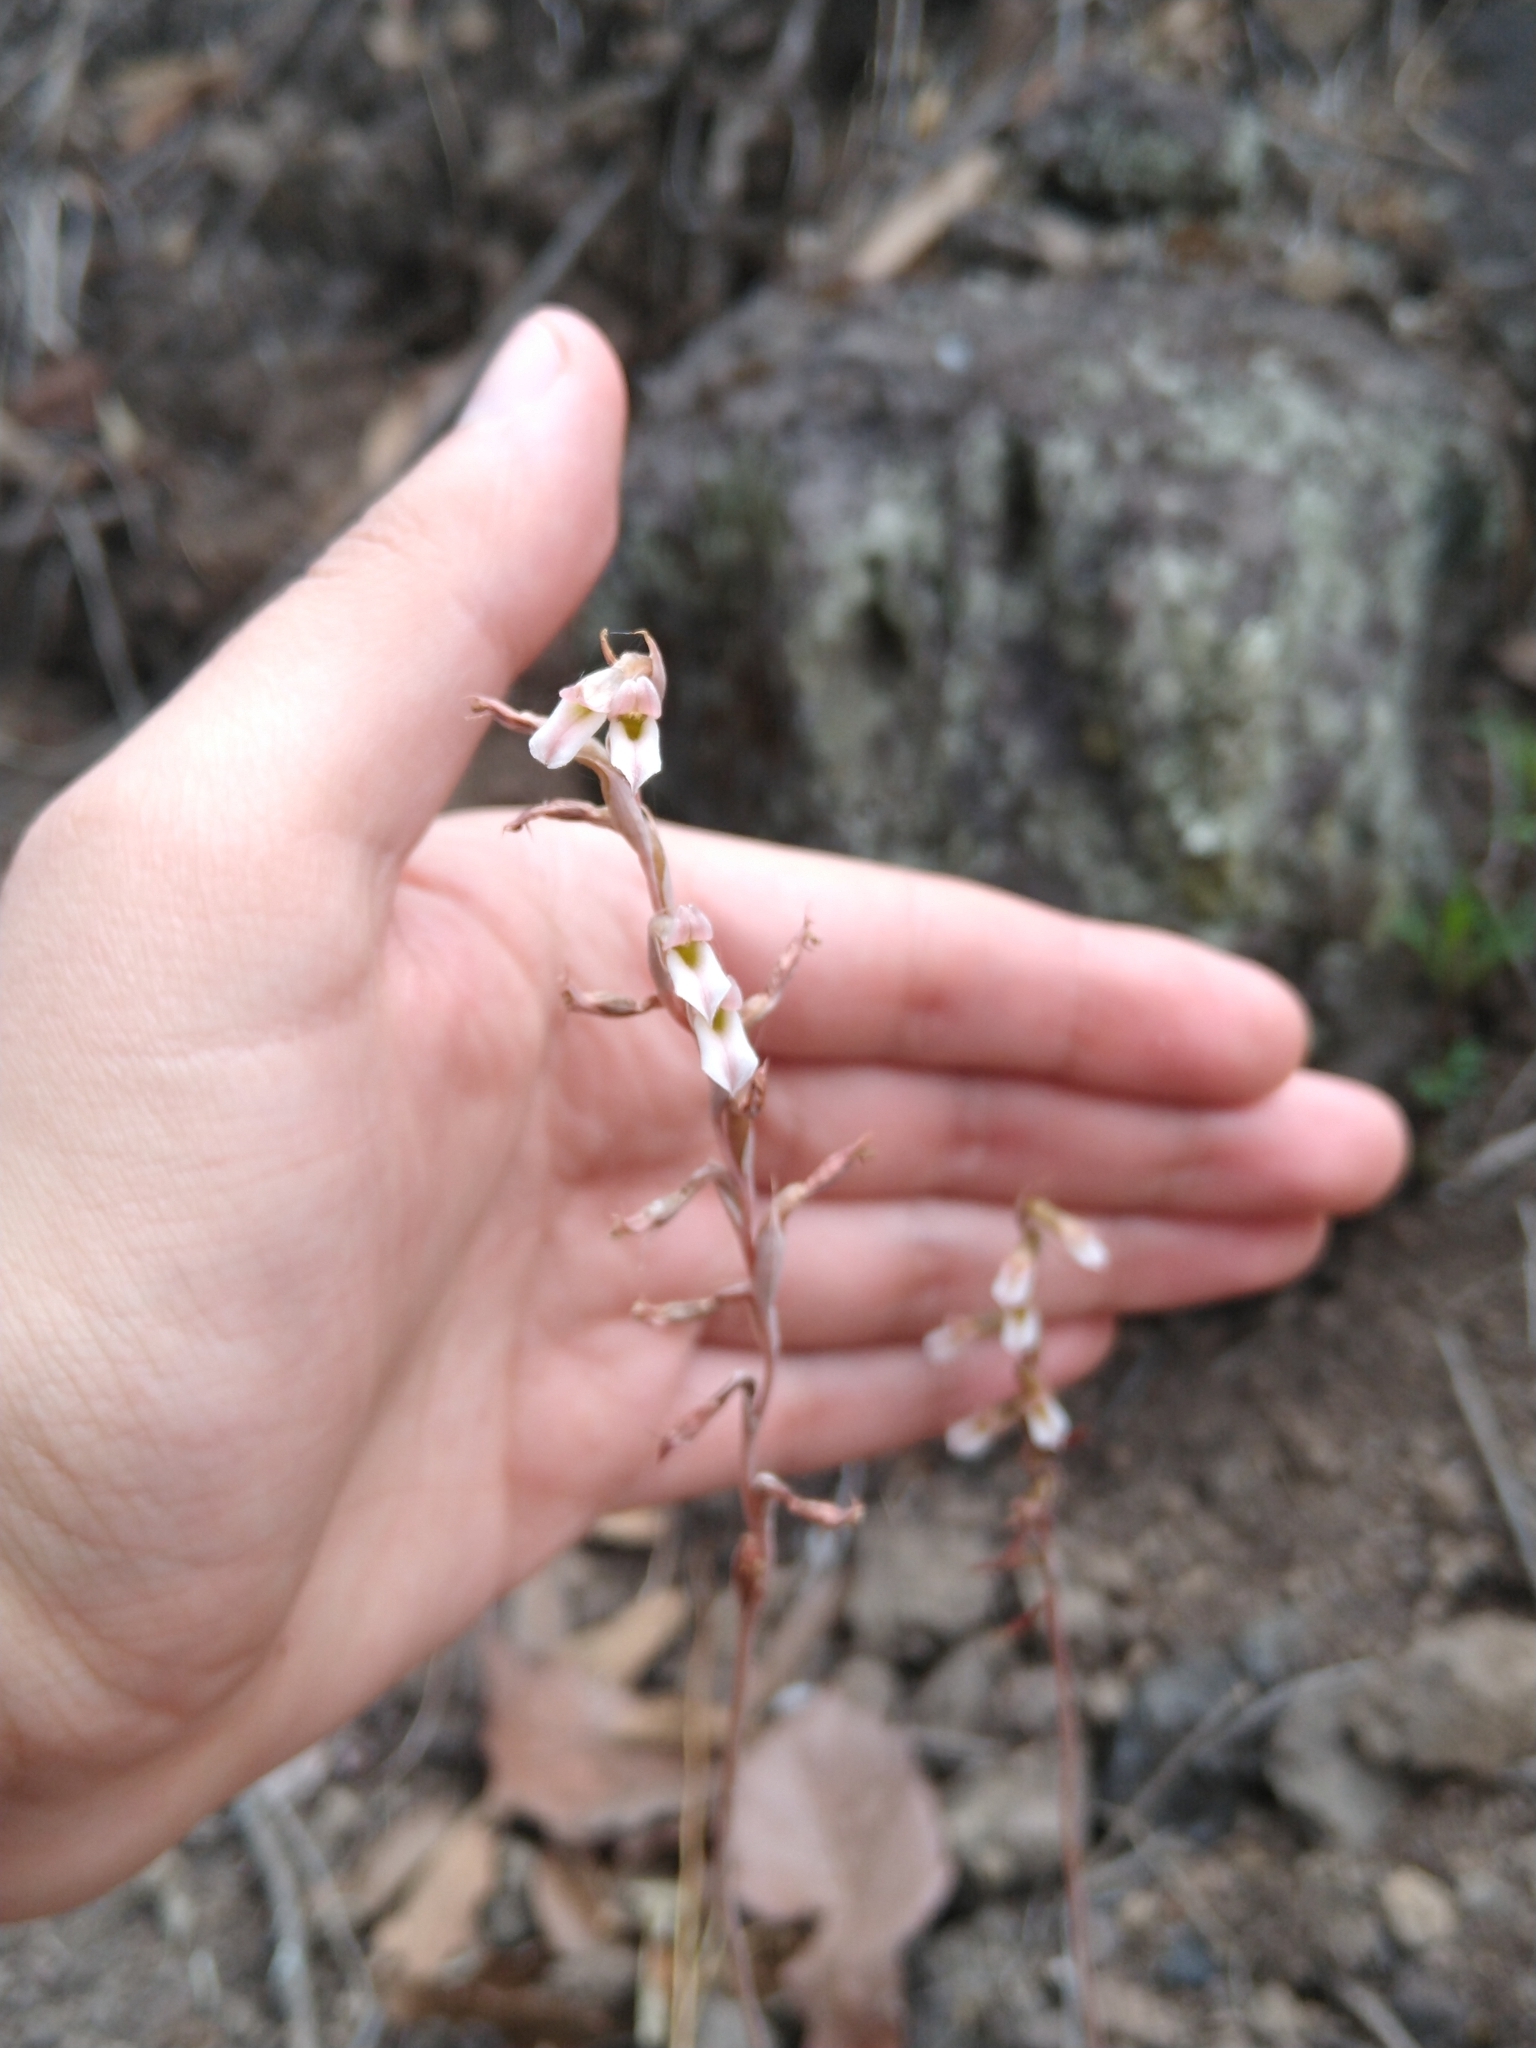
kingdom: Plantae
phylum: Tracheophyta
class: Liliopsida
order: Asparagales
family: Orchidaceae
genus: Greenwoodiella
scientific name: Greenwoodiella micrantha
